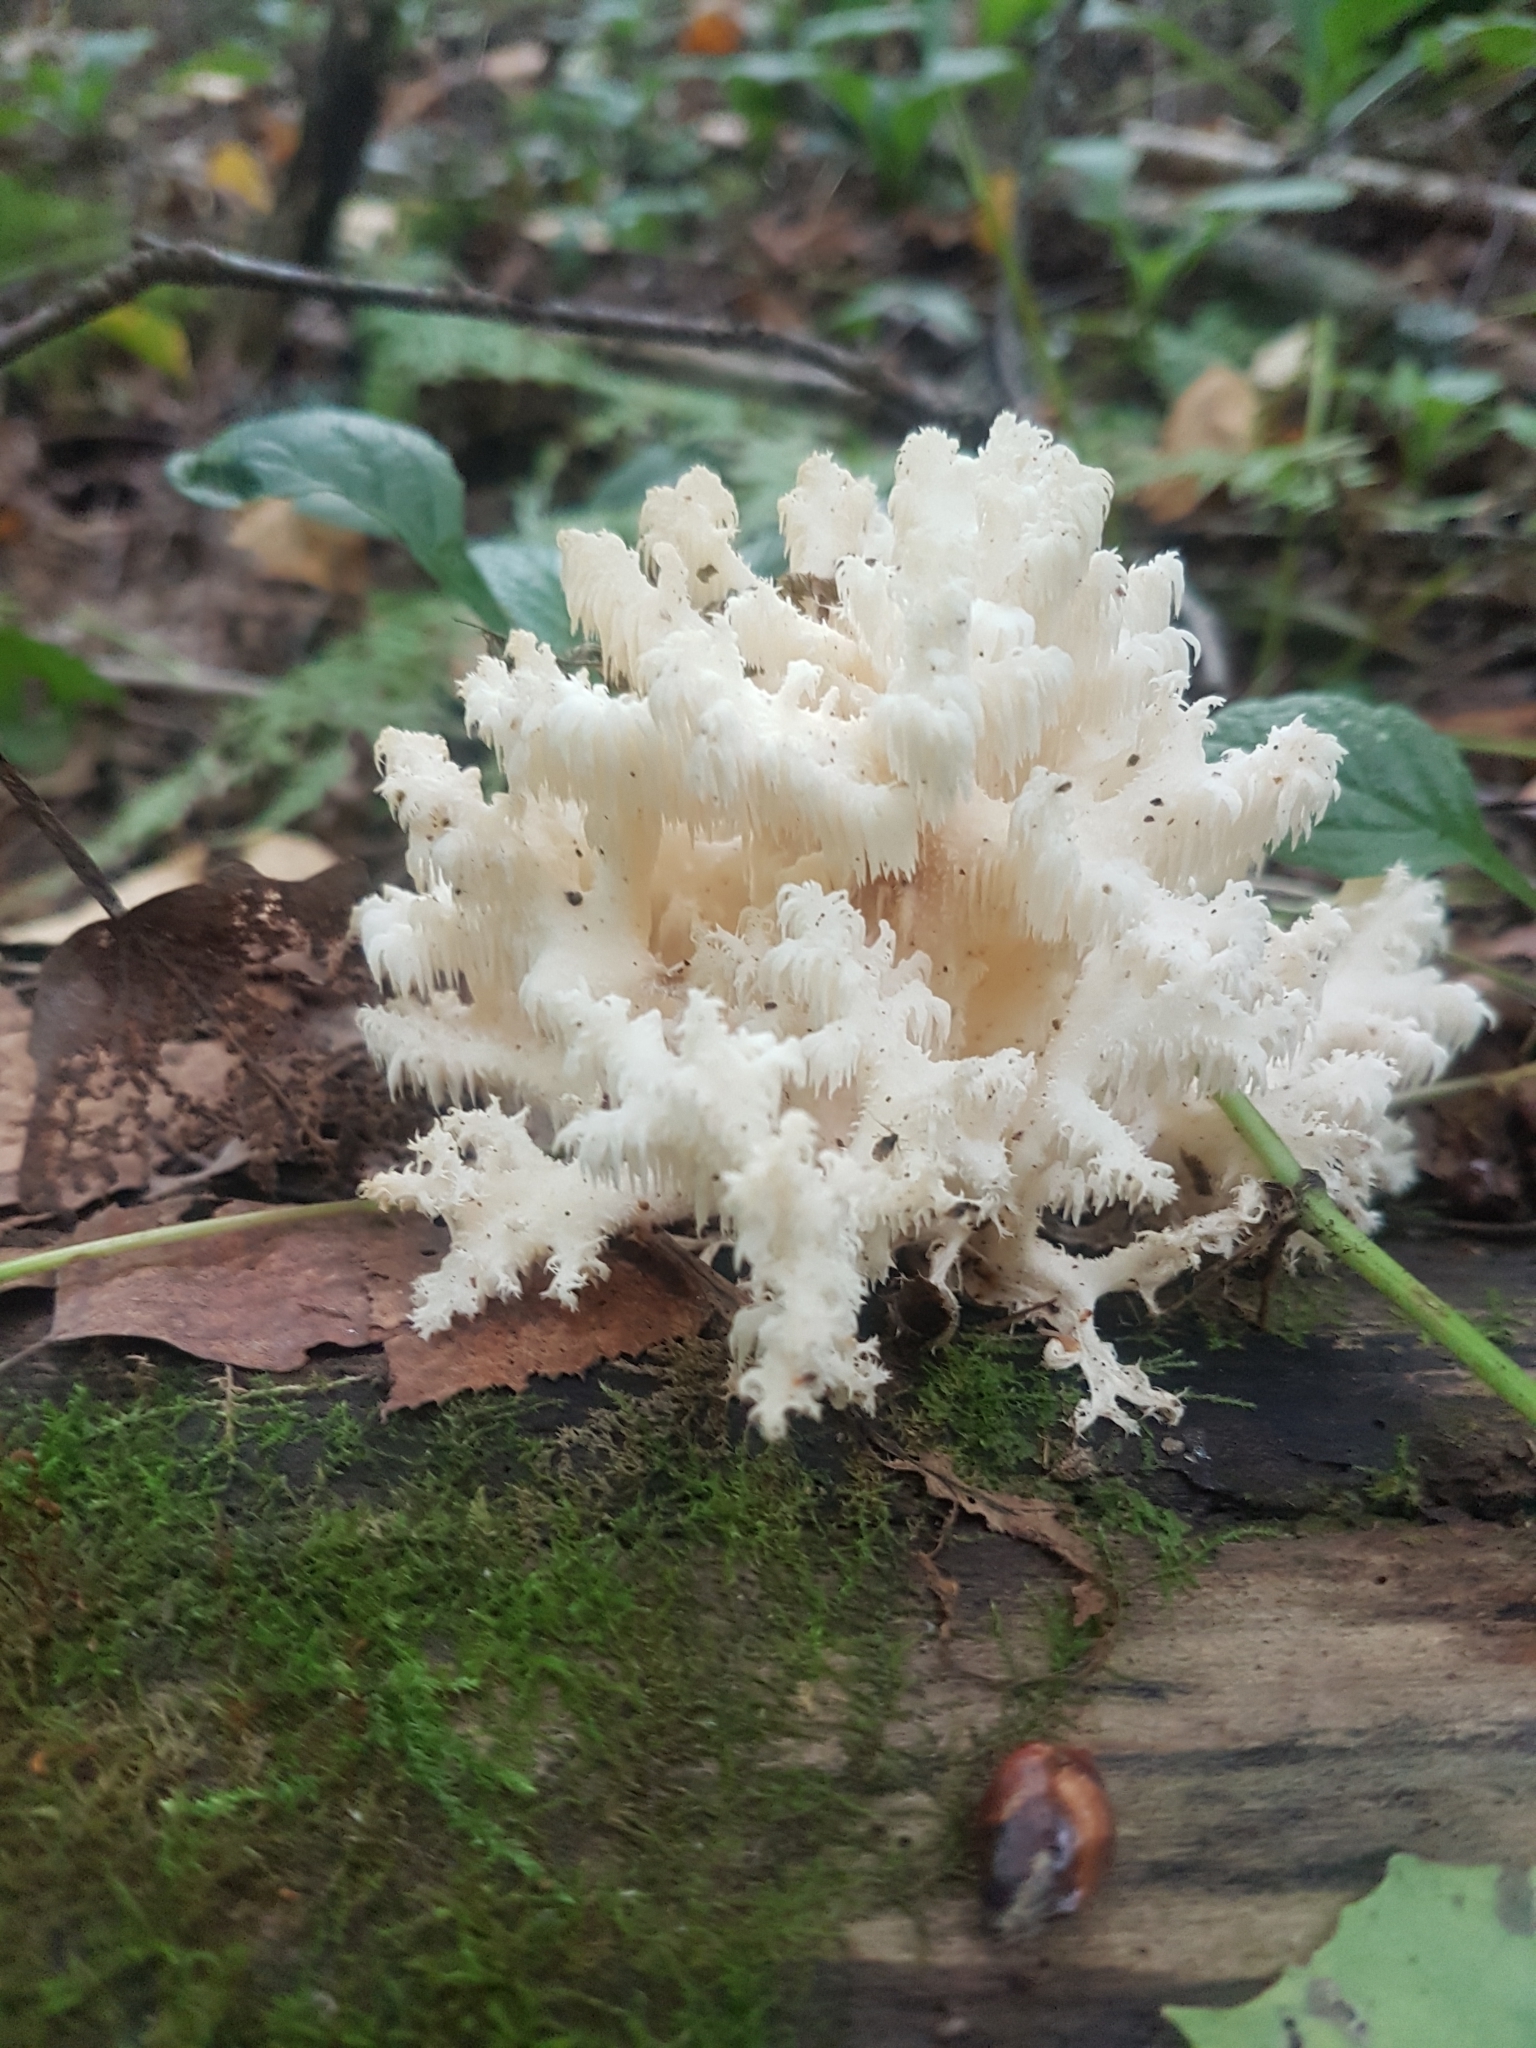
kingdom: Fungi
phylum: Basidiomycota
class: Agaricomycetes
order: Russulales
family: Hericiaceae
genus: Hericium
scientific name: Hericium coralloides
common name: Coral tooth
